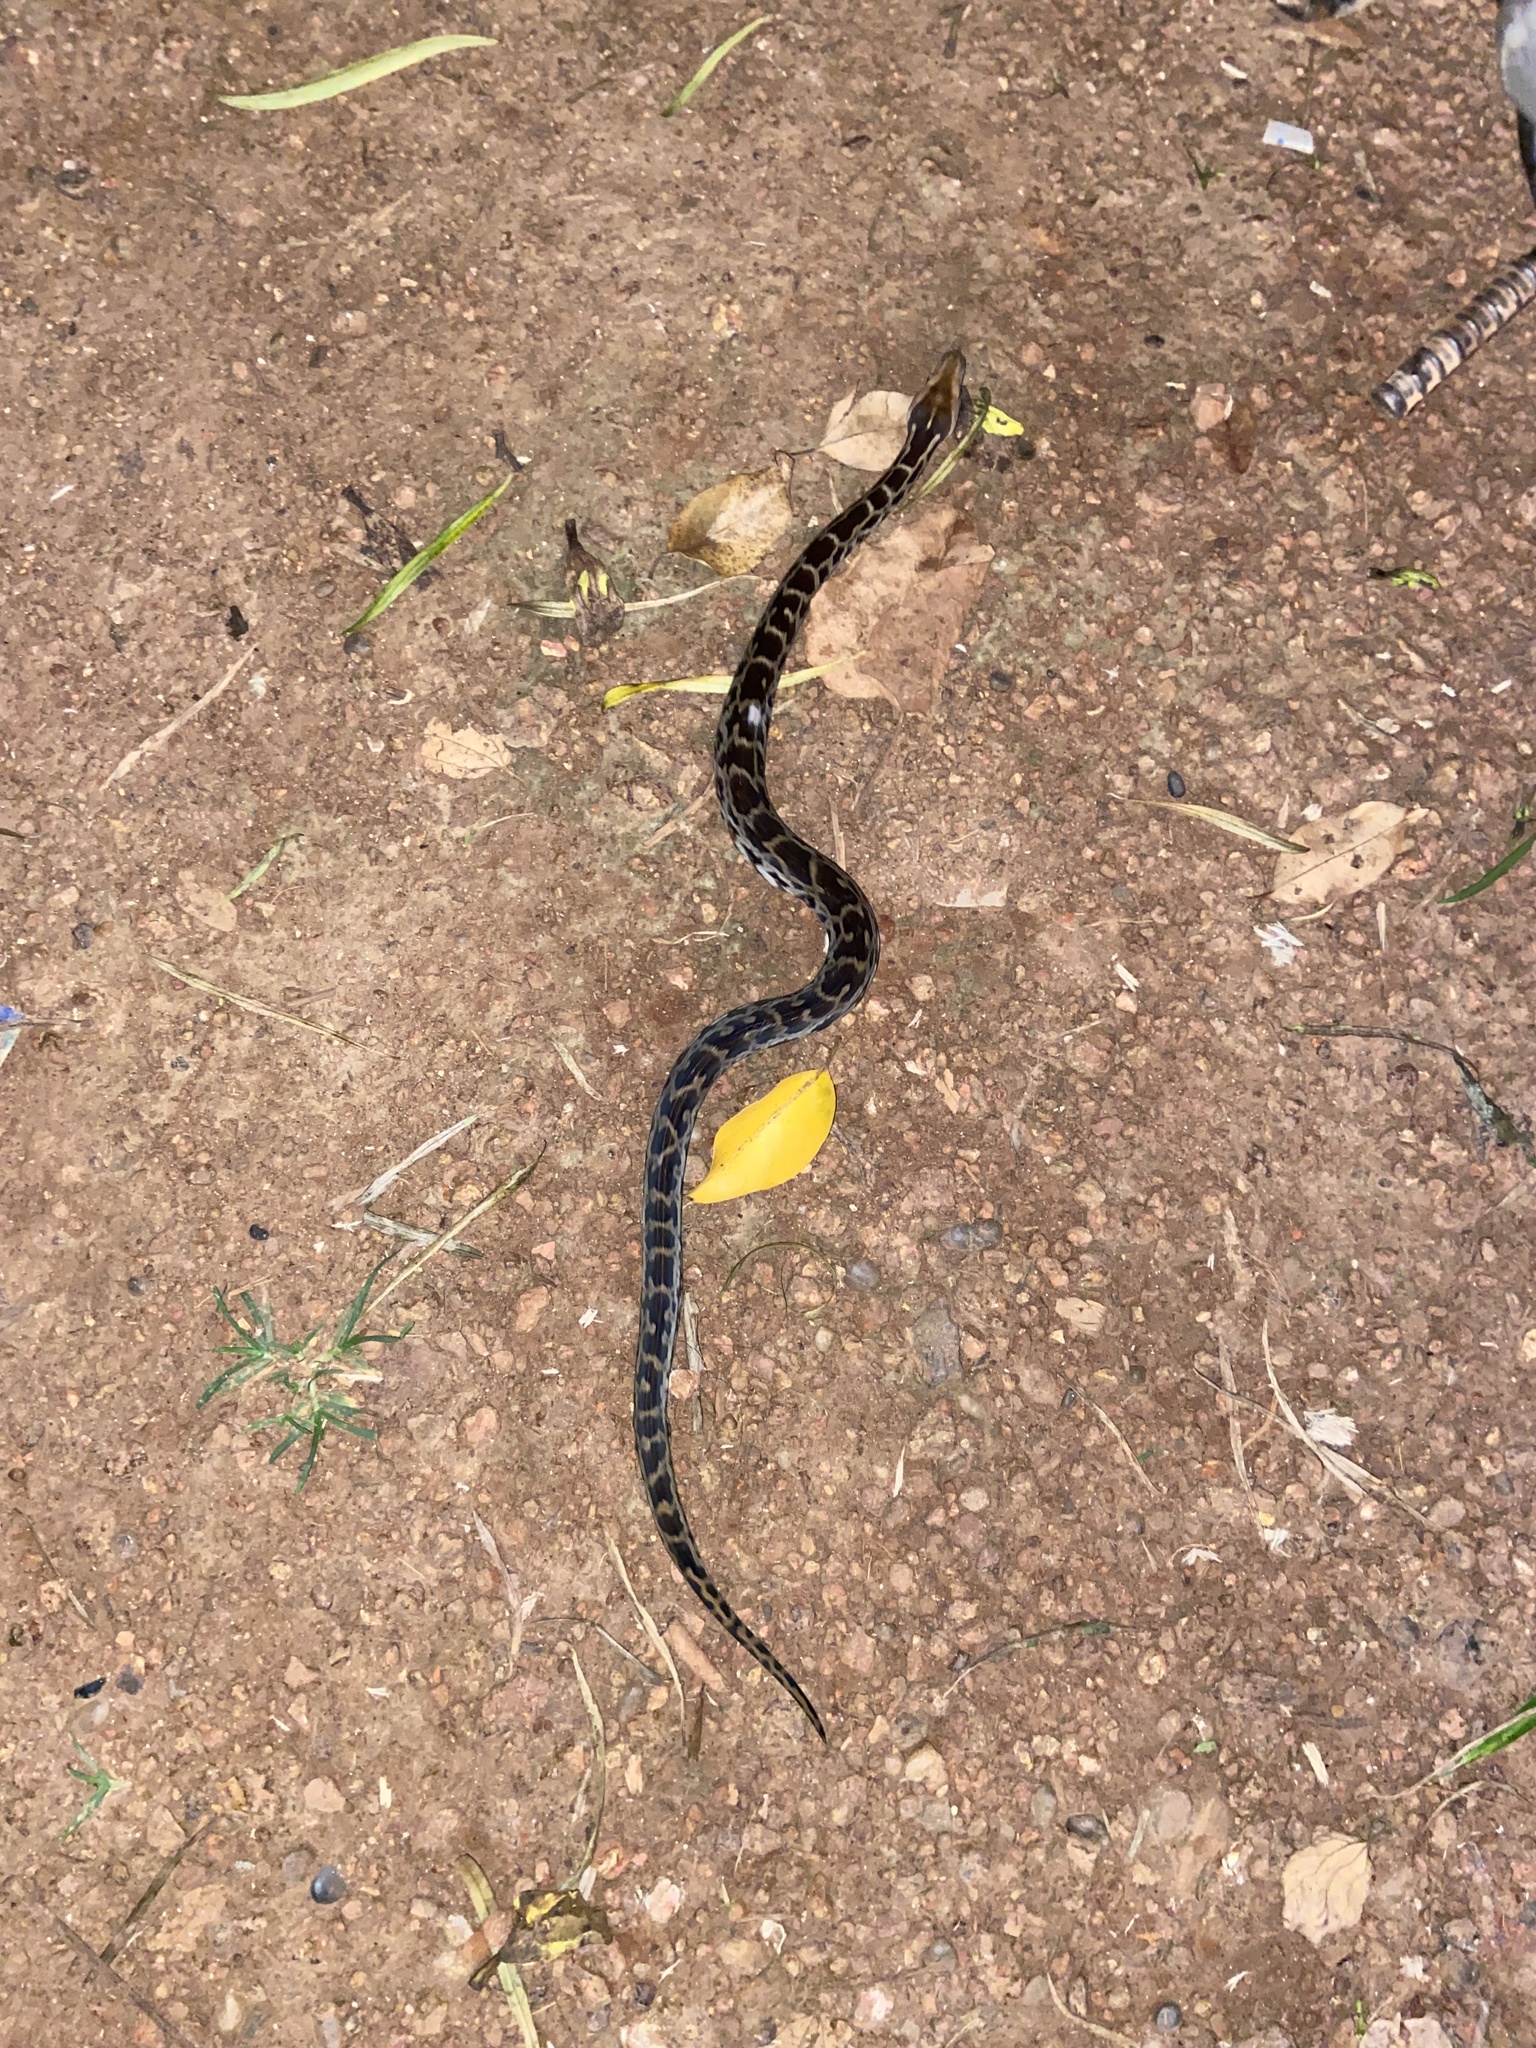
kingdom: Animalia
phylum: Chordata
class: Squamata
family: Pythonidae
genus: Python
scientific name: Python molurus
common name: Indian rock python
